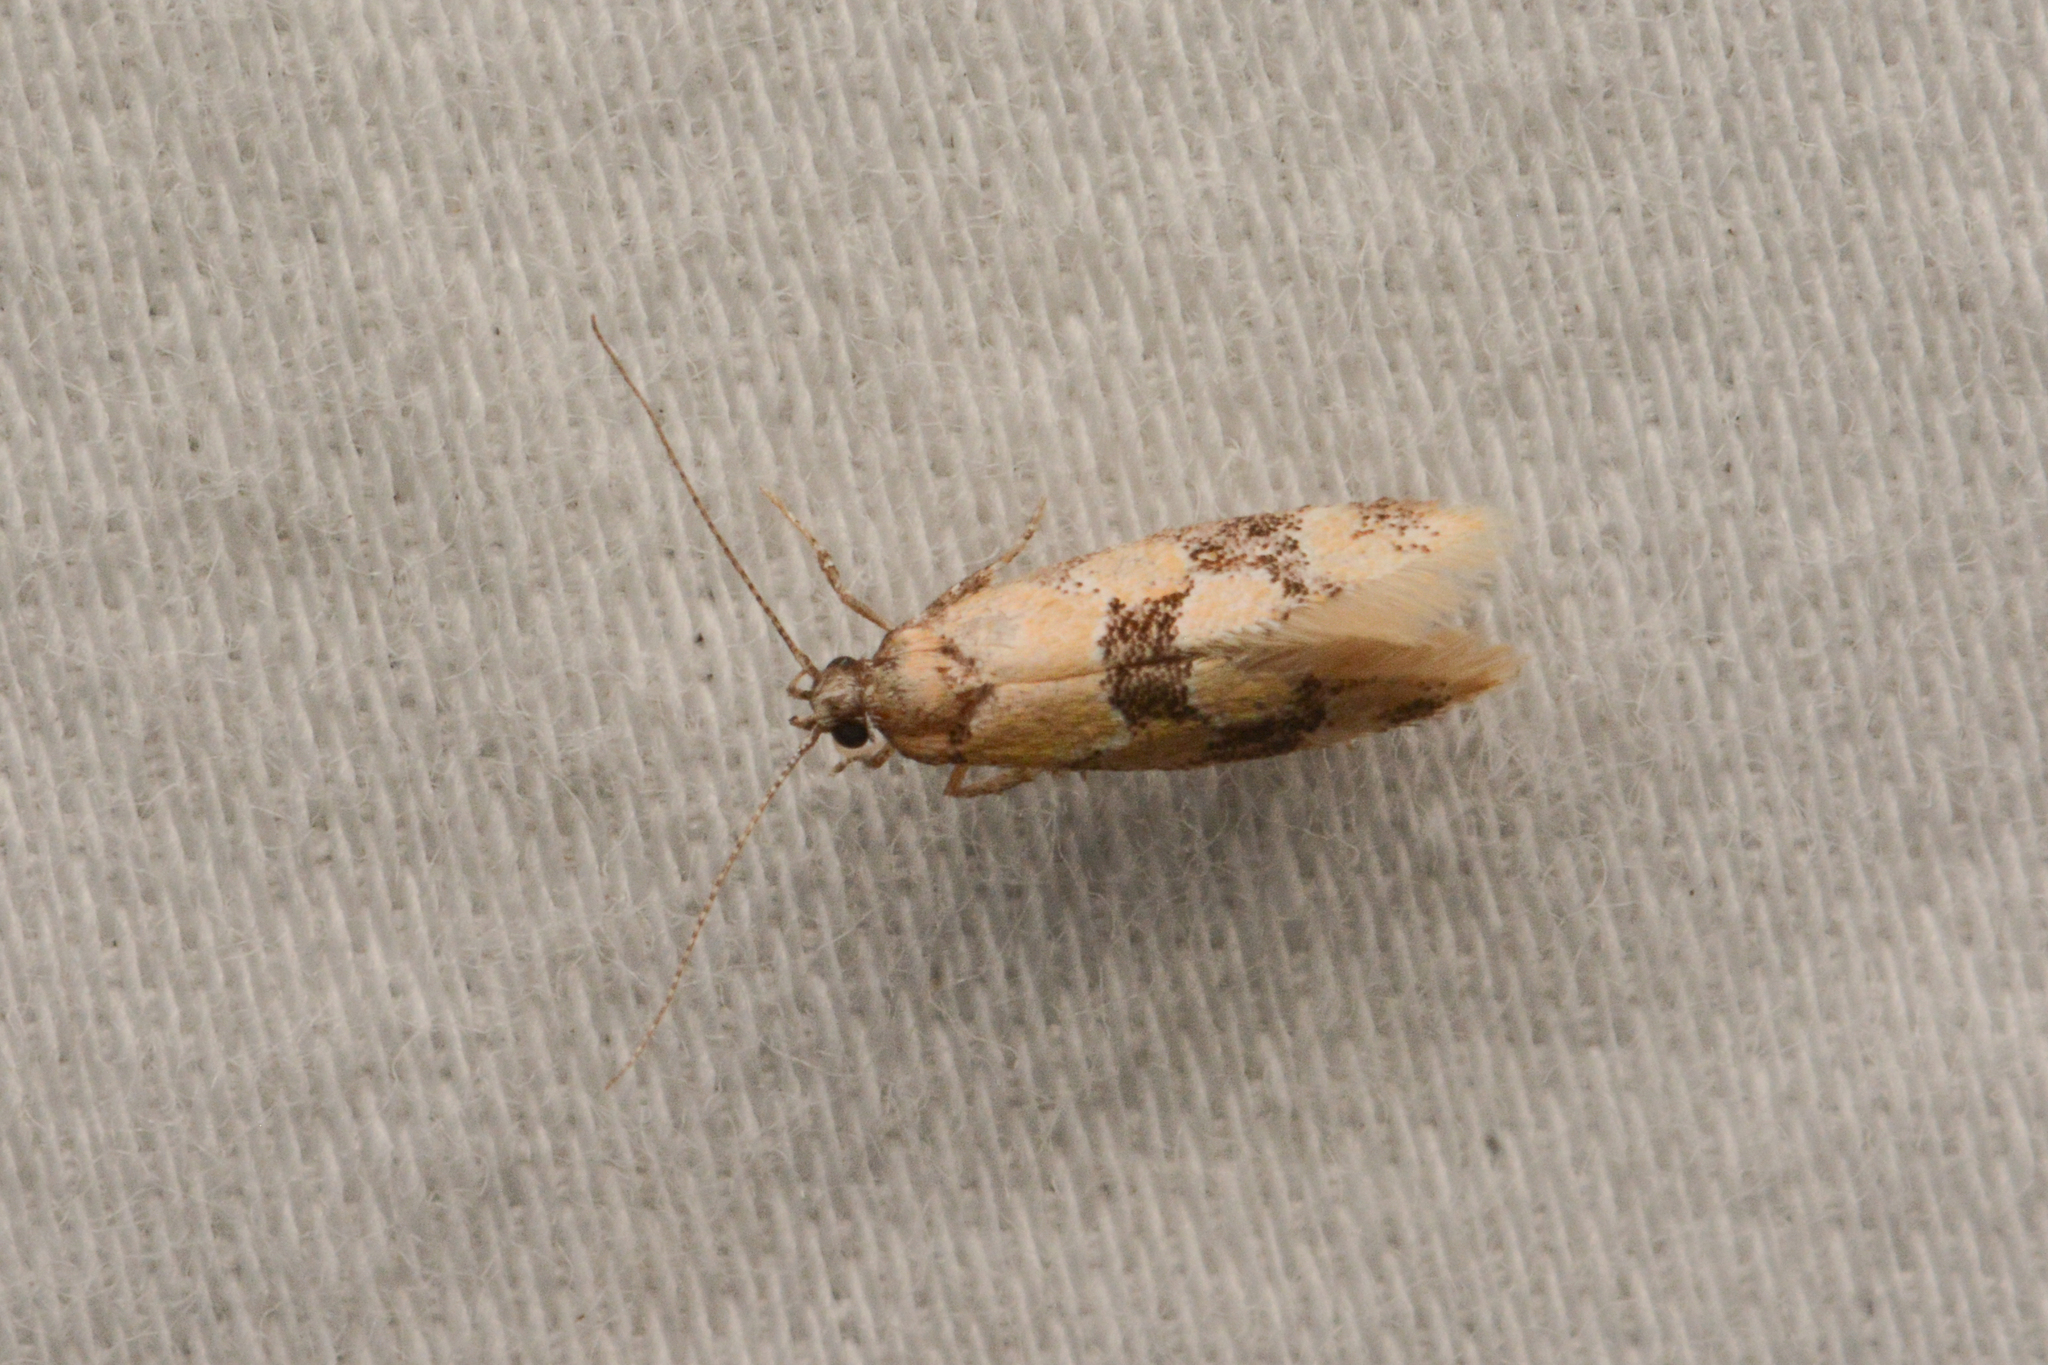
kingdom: Animalia
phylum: Arthropoda
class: Insecta
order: Lepidoptera
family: Oecophoridae
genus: Decantha
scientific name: Decantha stonda
